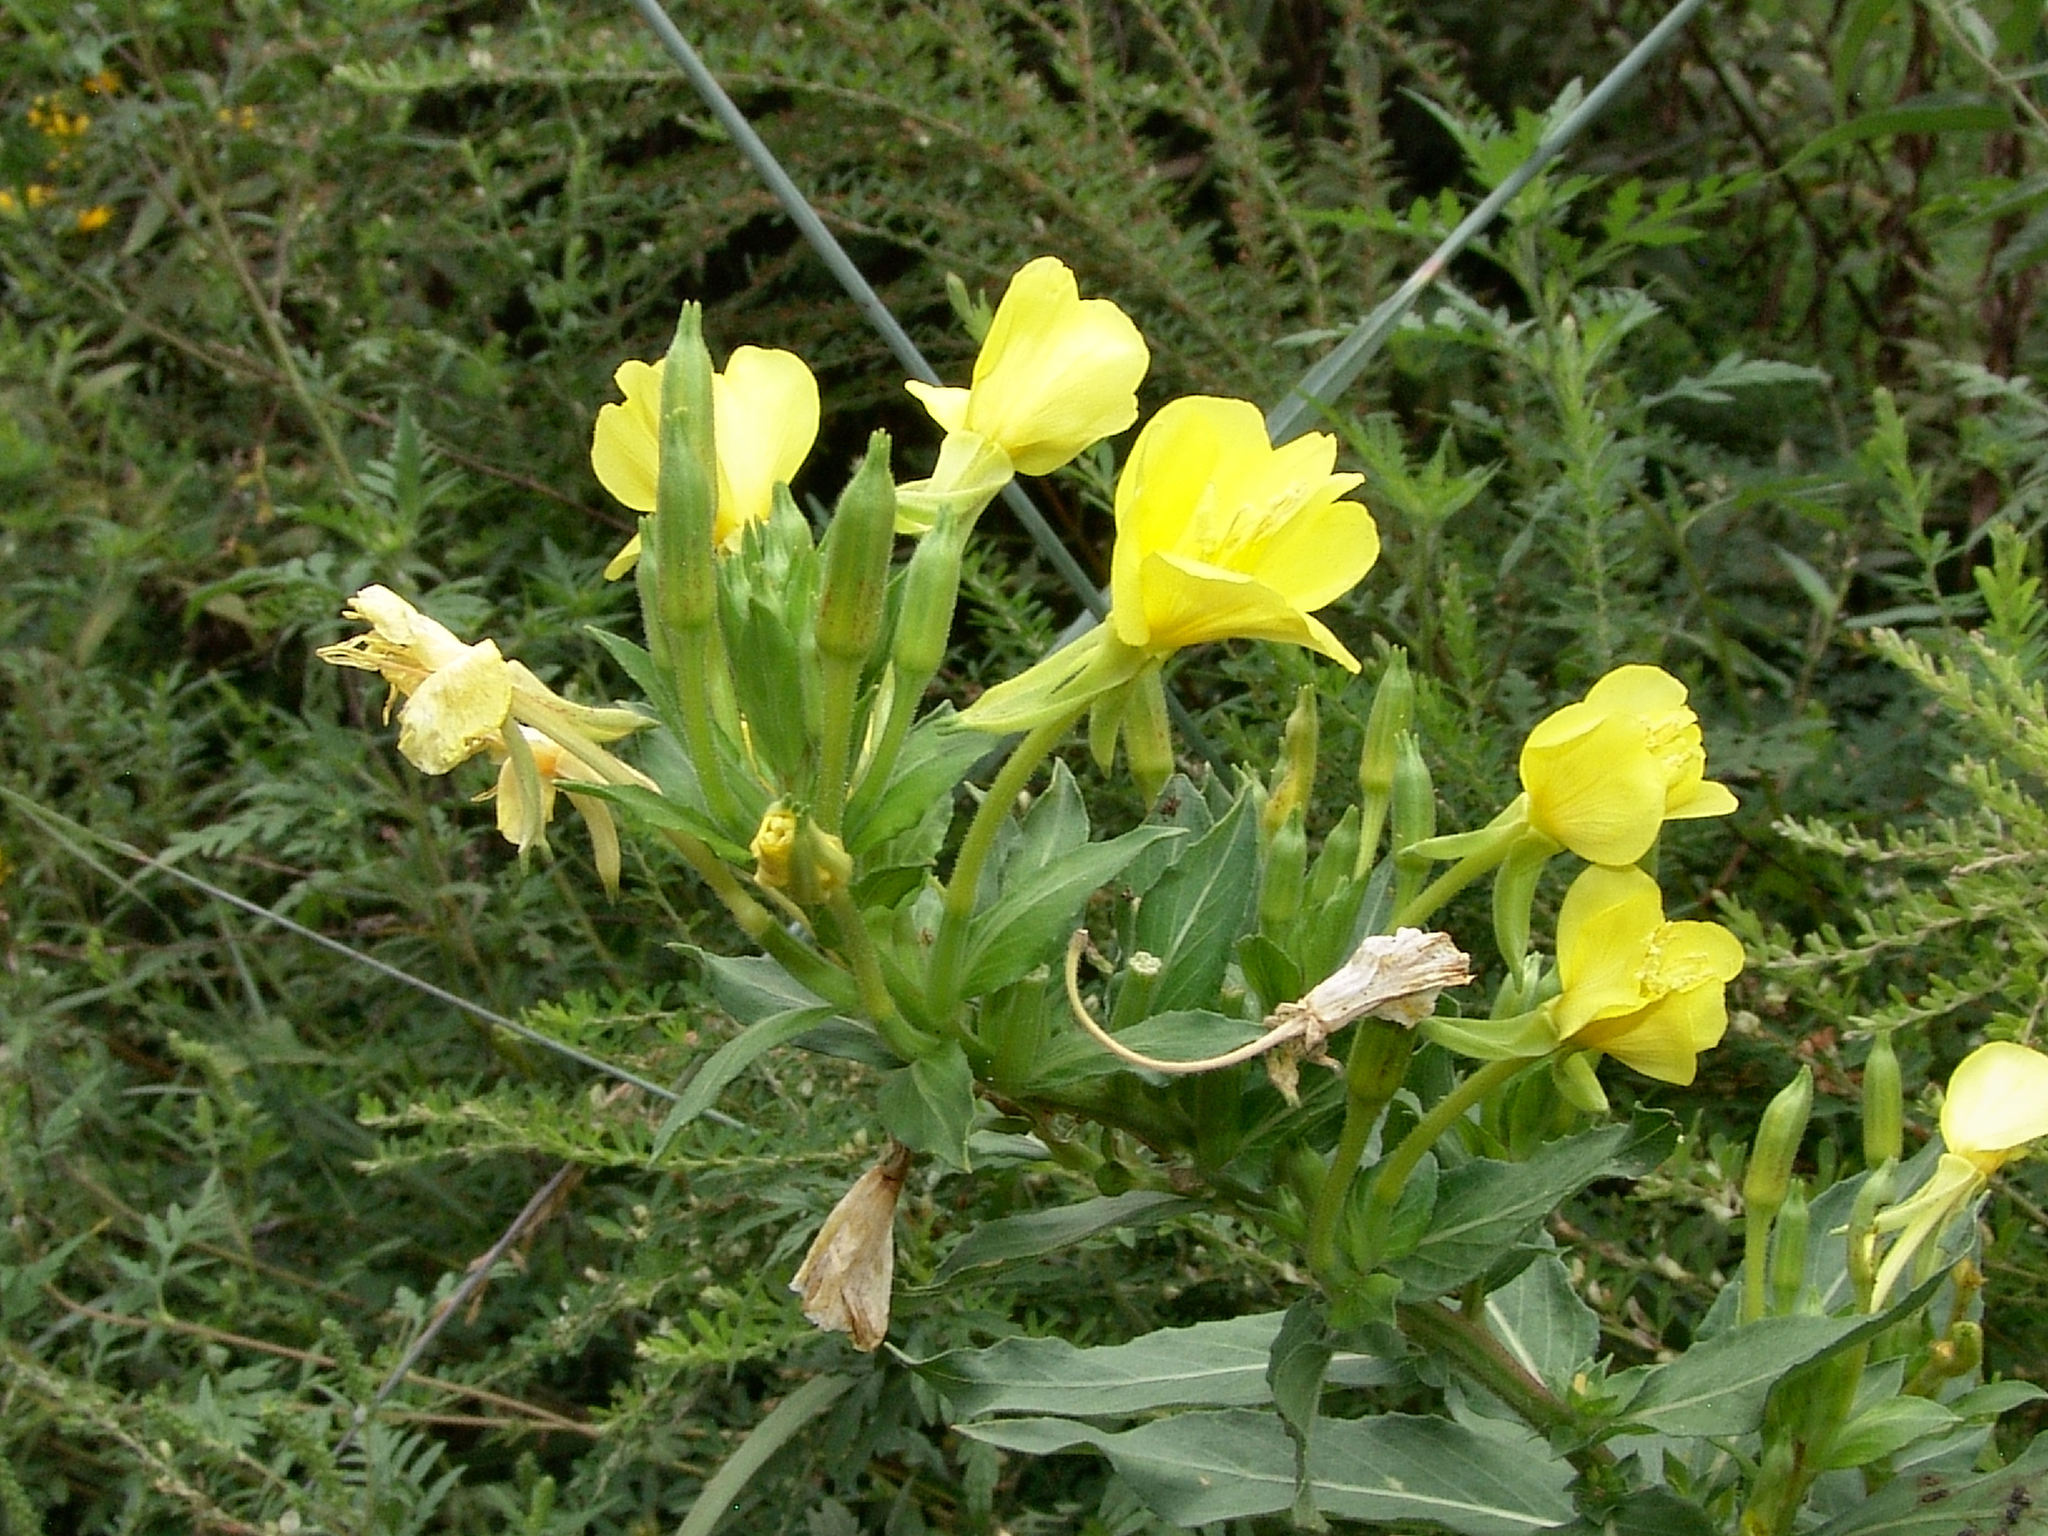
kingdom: Plantae
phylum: Tracheophyta
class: Magnoliopsida
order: Myrtales
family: Onagraceae
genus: Oenothera
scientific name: Oenothera biennis
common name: Common evening-primrose
